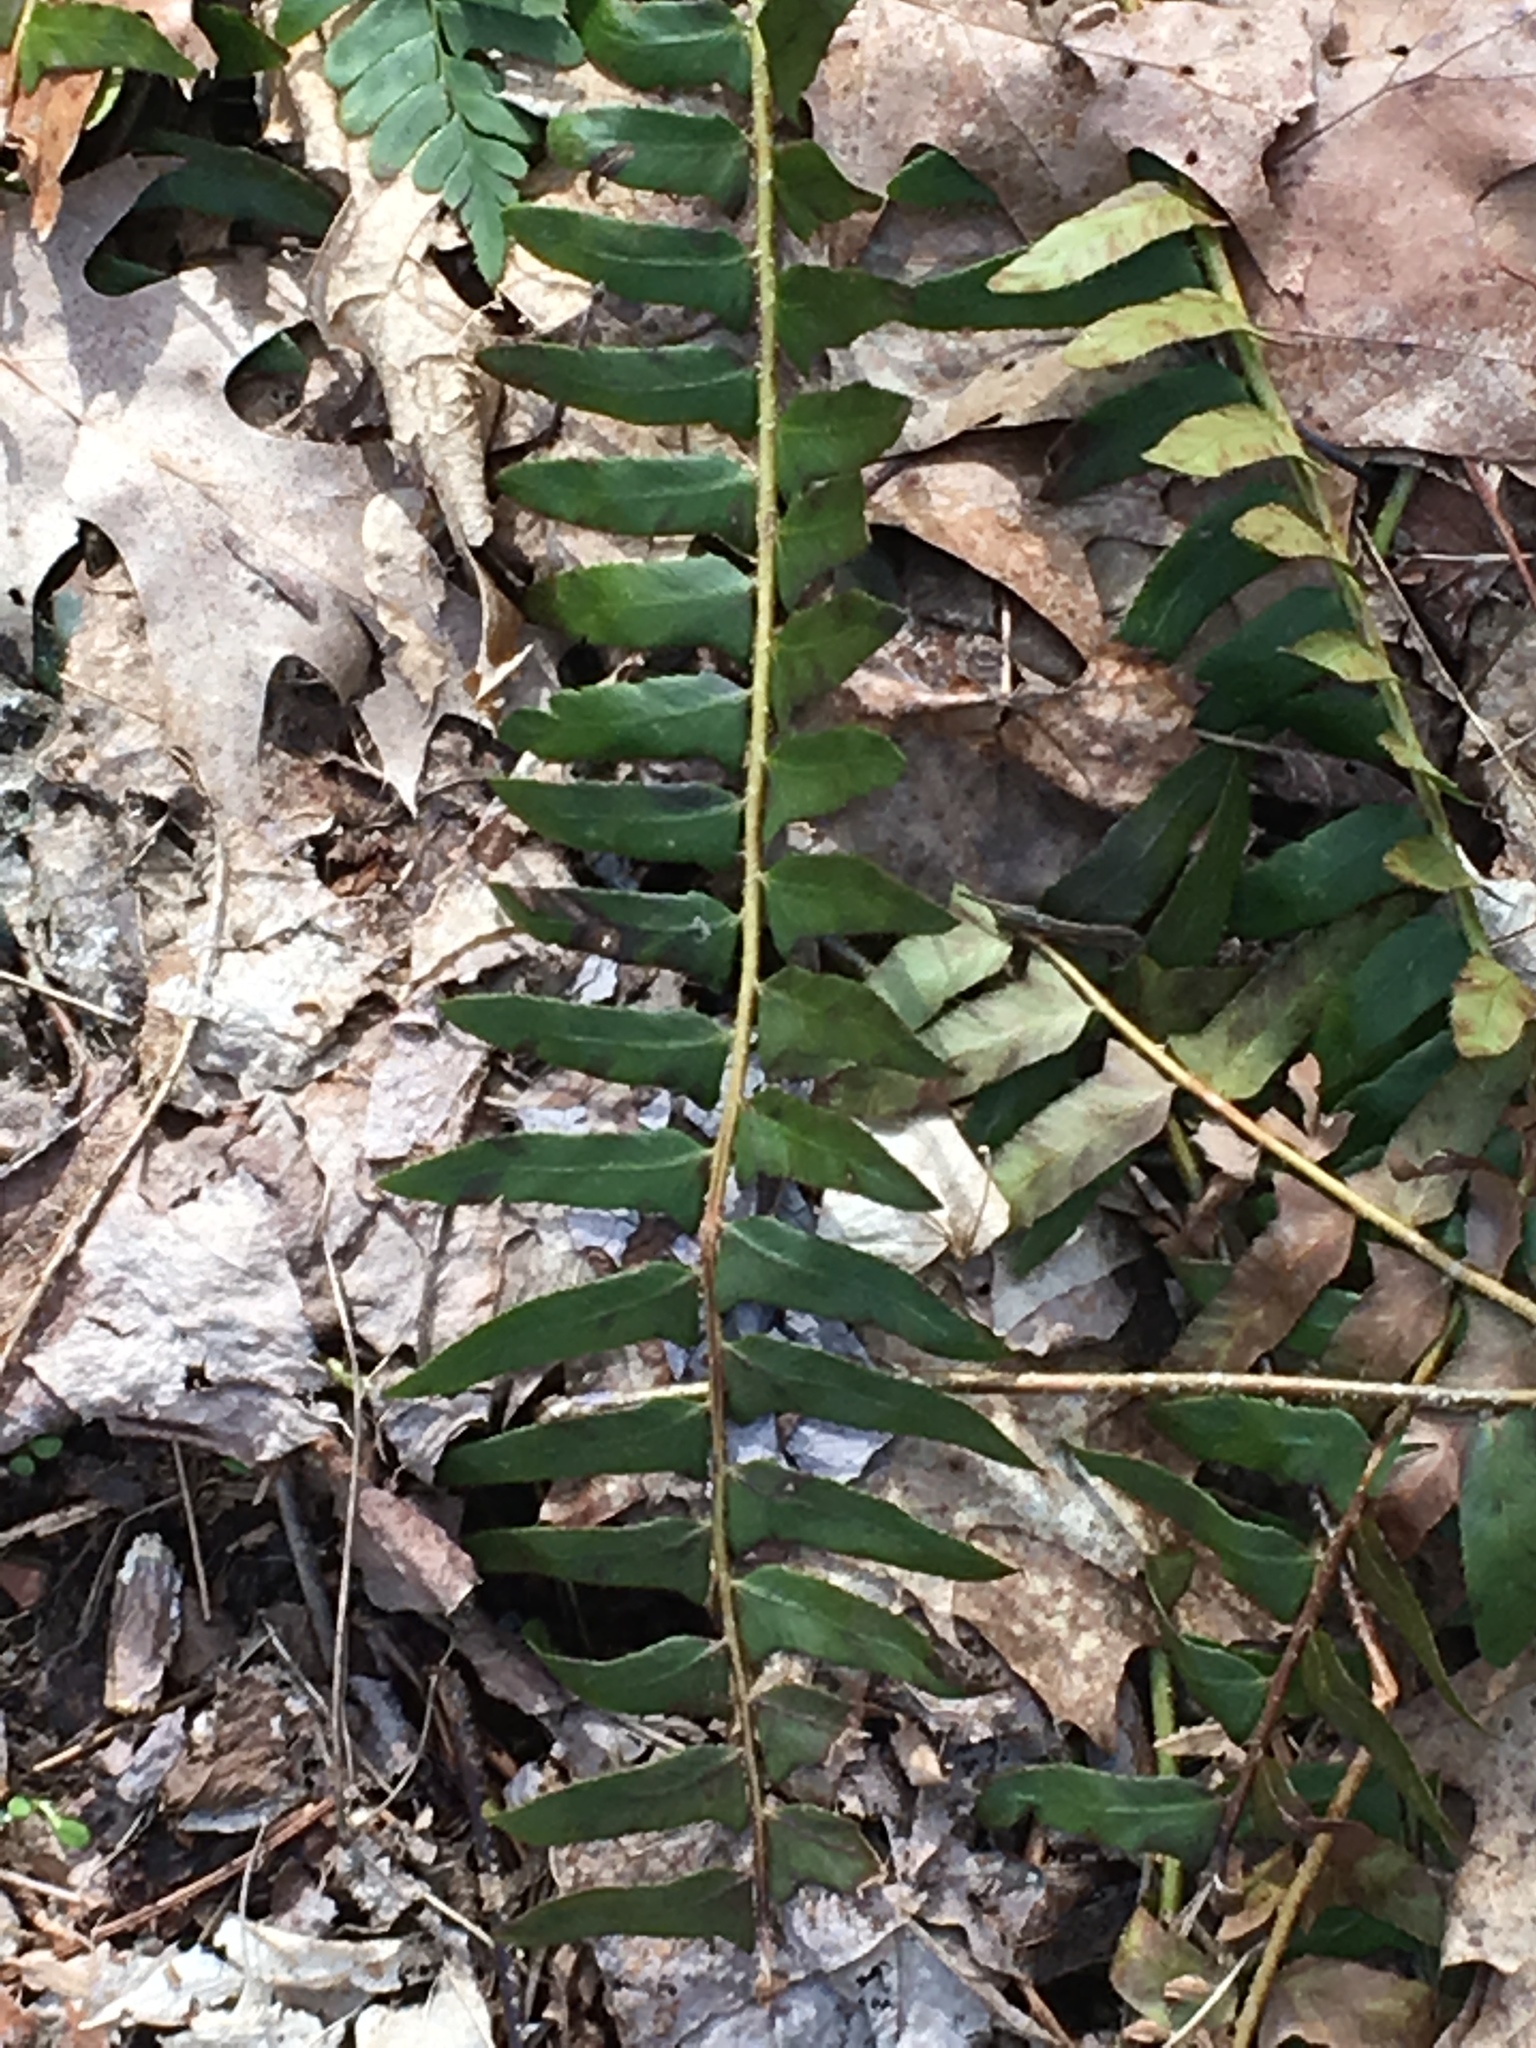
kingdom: Plantae
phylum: Tracheophyta
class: Polypodiopsida
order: Polypodiales
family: Dryopteridaceae
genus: Polystichum
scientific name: Polystichum acrostichoides
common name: Christmas fern
